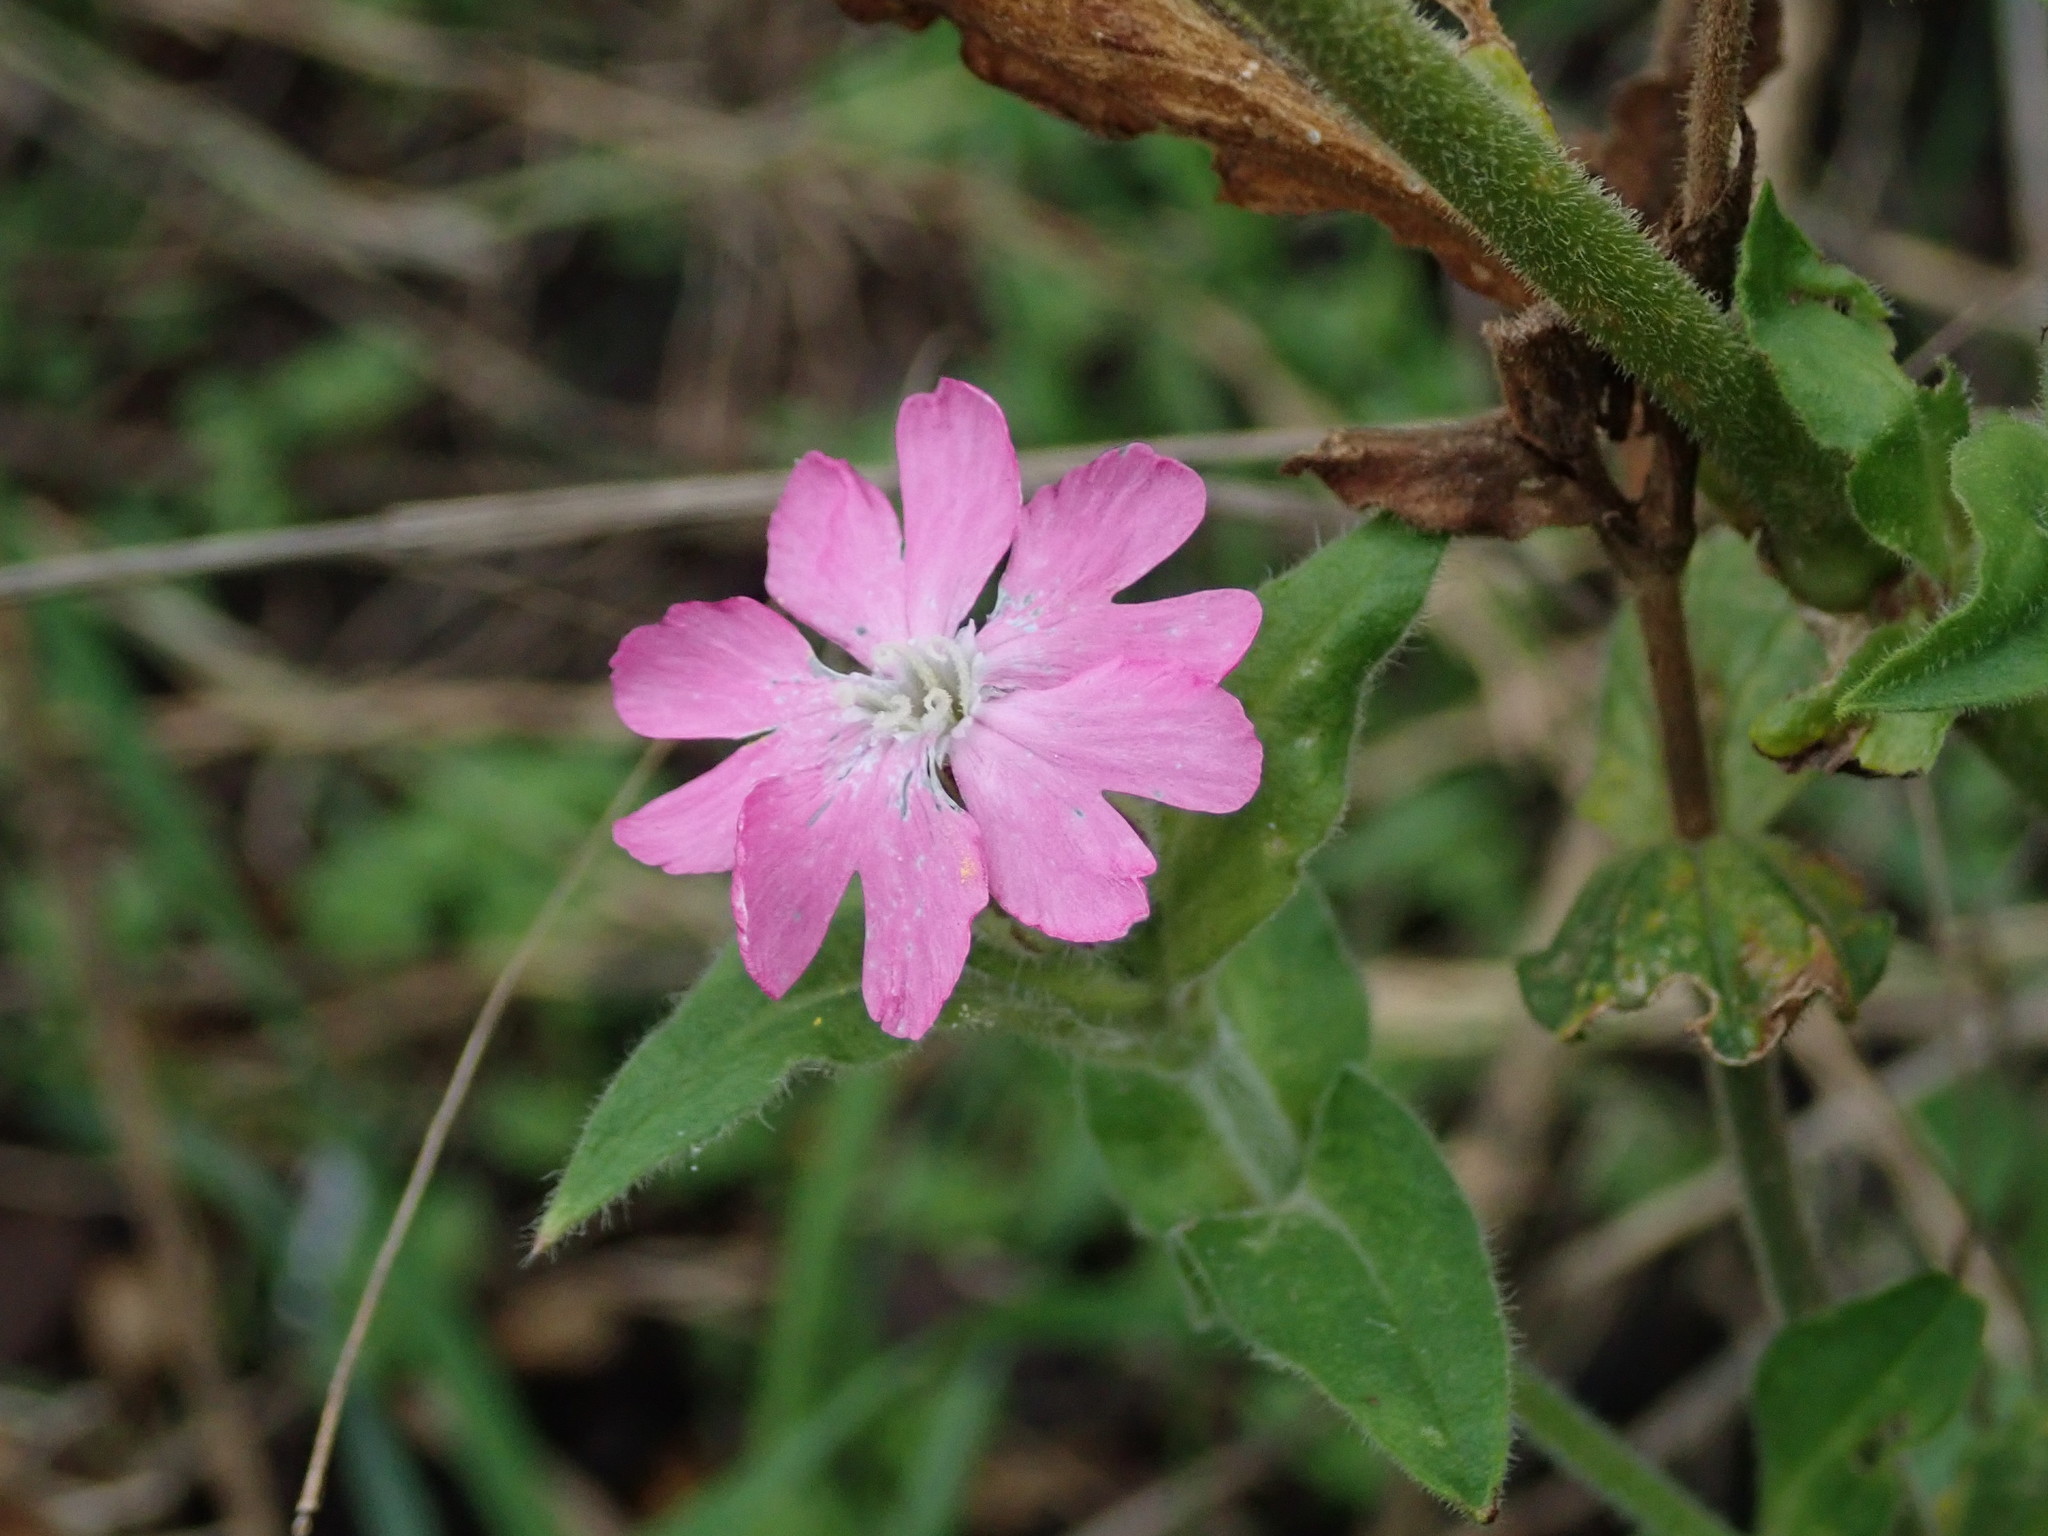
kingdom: Plantae
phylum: Tracheophyta
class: Magnoliopsida
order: Caryophyllales
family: Caryophyllaceae
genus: Silene
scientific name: Silene dioica
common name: Red campion
